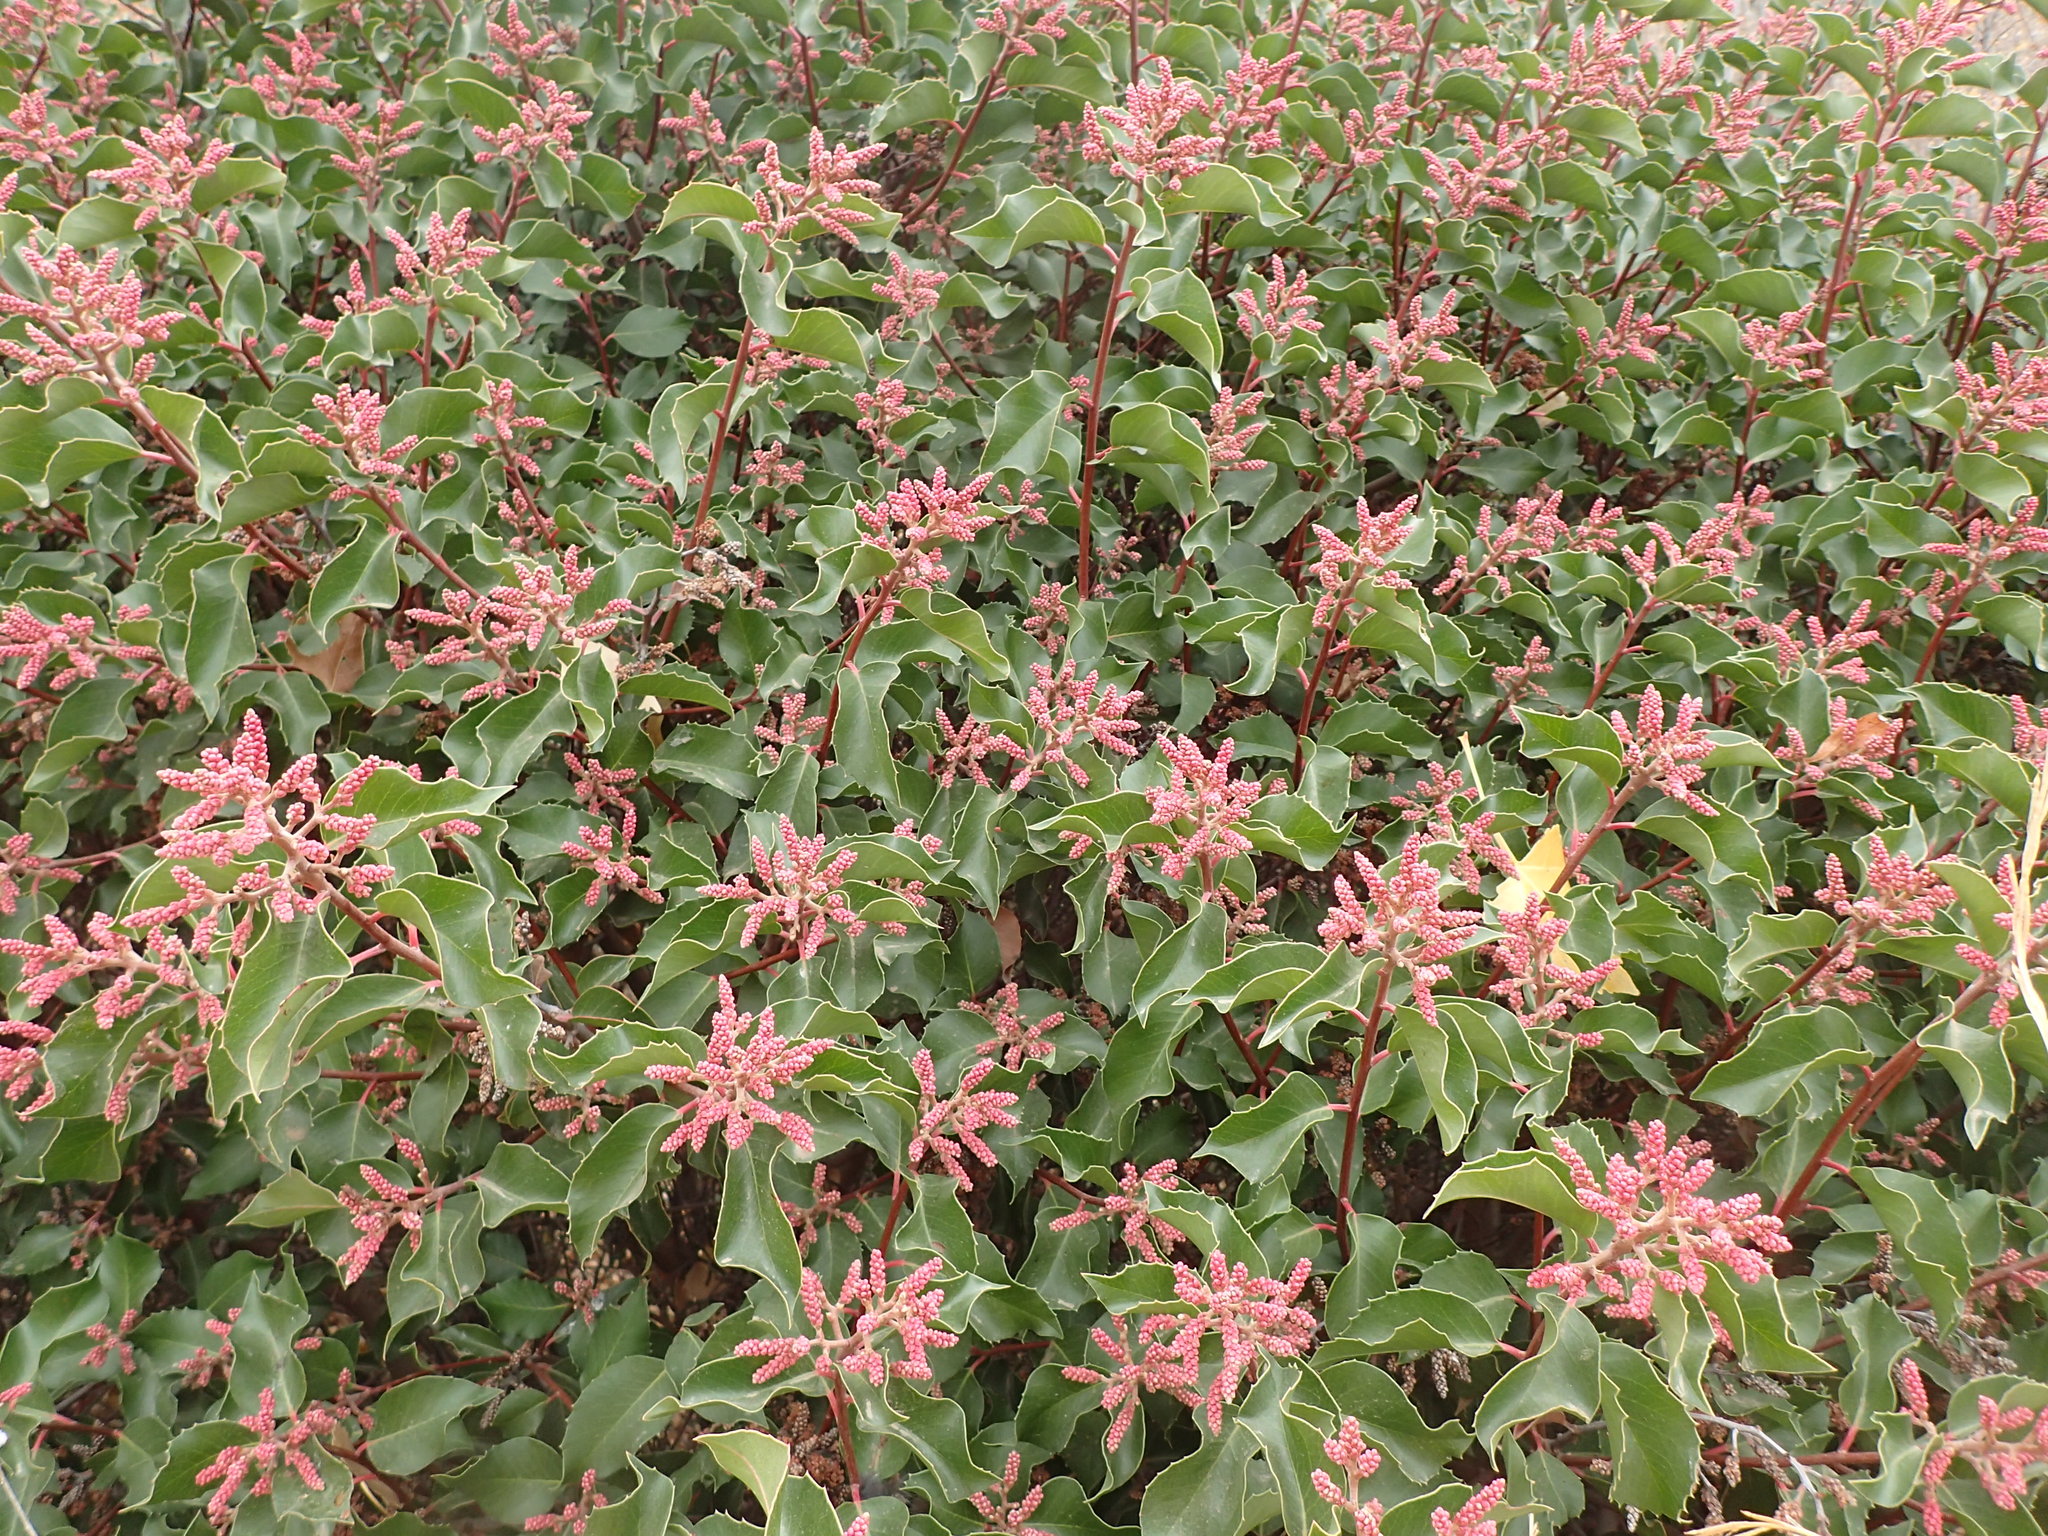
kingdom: Plantae
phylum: Tracheophyta
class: Magnoliopsida
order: Sapindales
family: Anacardiaceae
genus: Rhus
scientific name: Rhus ovata
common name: Sugar sumac
